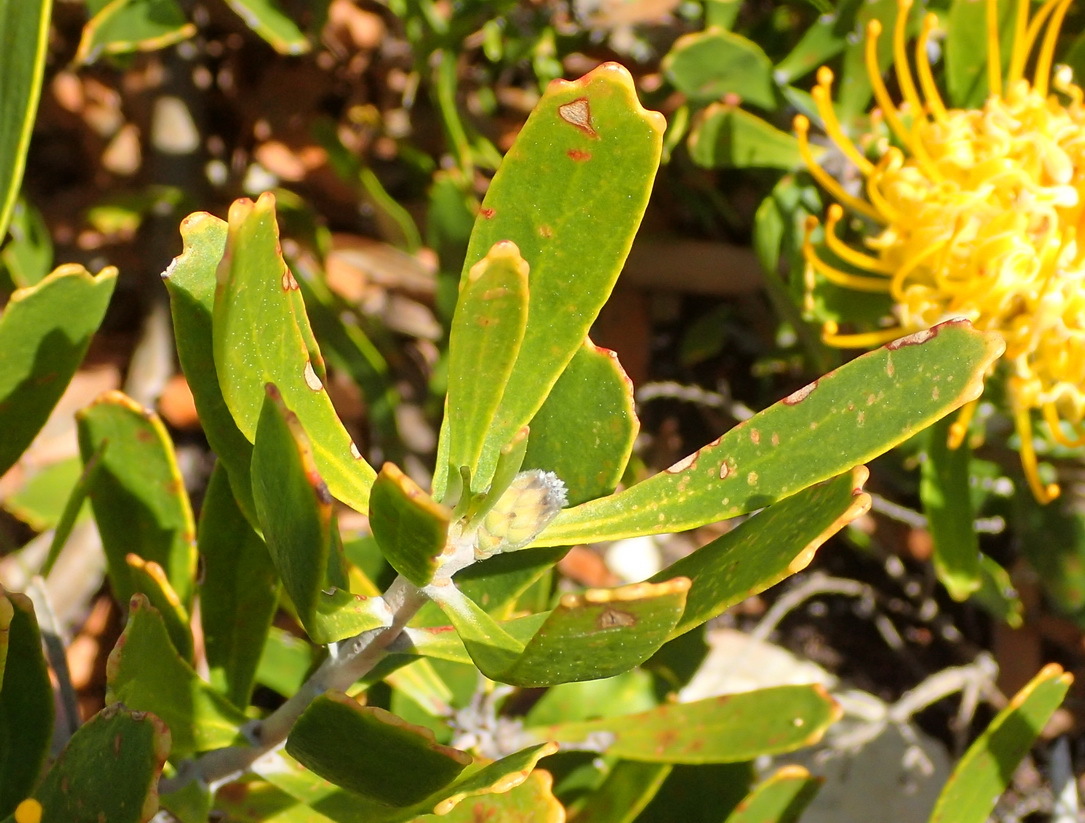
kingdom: Plantae
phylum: Tracheophyta
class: Magnoliopsida
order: Proteales
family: Proteaceae
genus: Leucospermum
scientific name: Leucospermum cuneiforme
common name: Common pincushion
